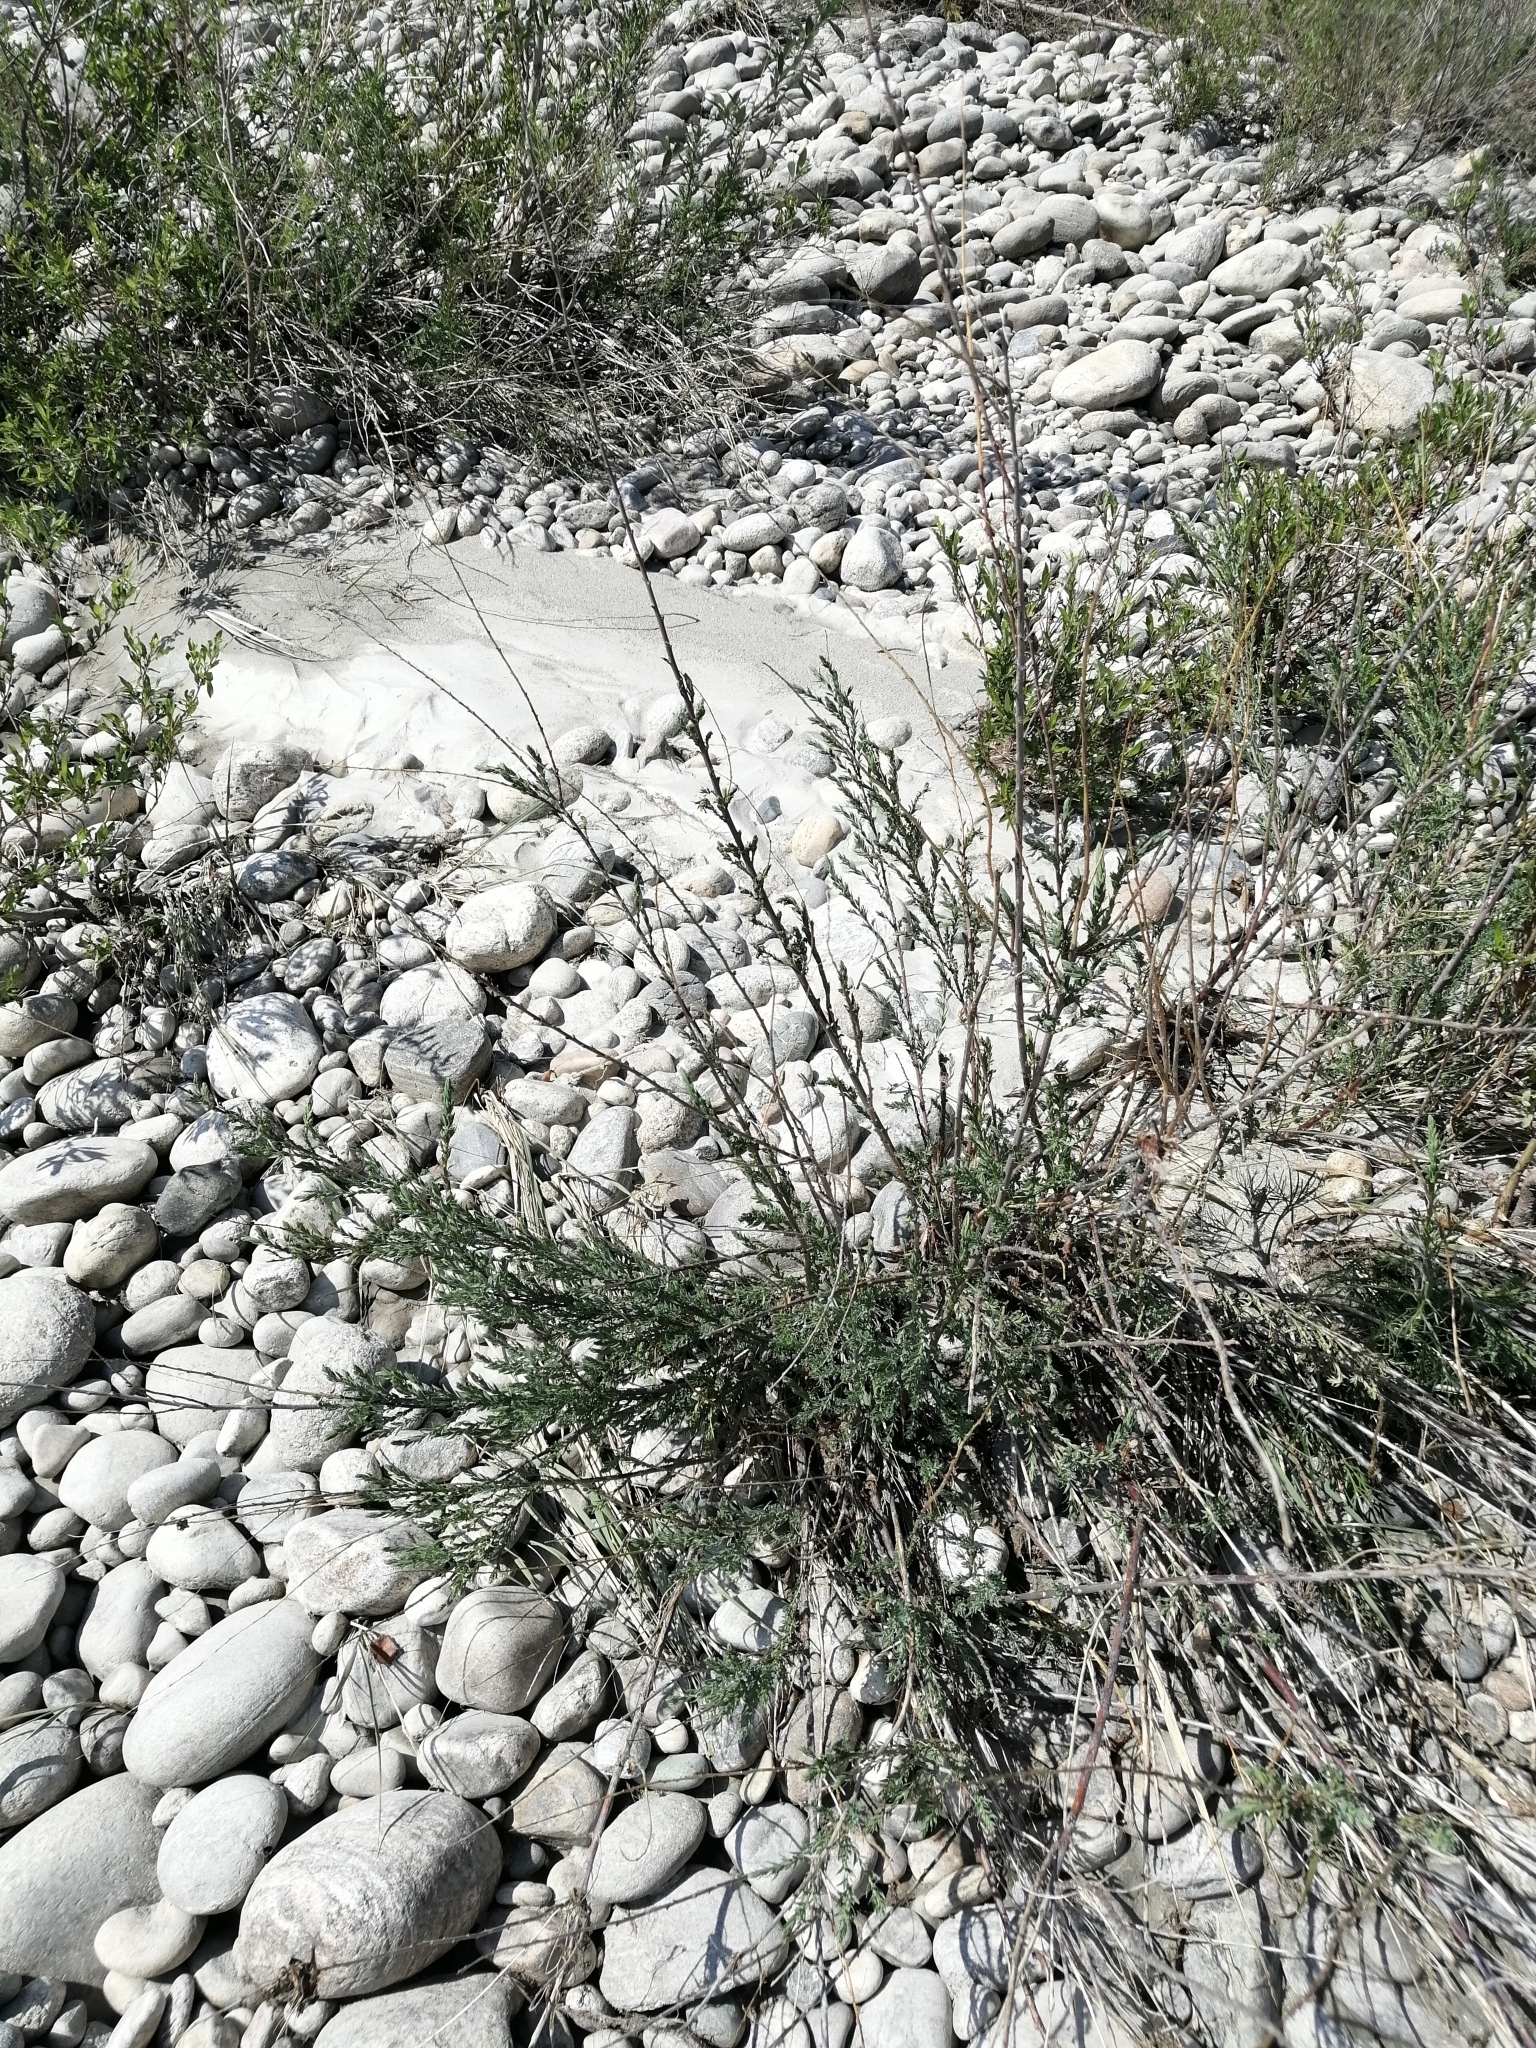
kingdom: Plantae
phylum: Tracheophyta
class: Magnoliopsida
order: Caryophyllales
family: Tamaricaceae
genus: Myricaria
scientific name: Myricaria longifolia
